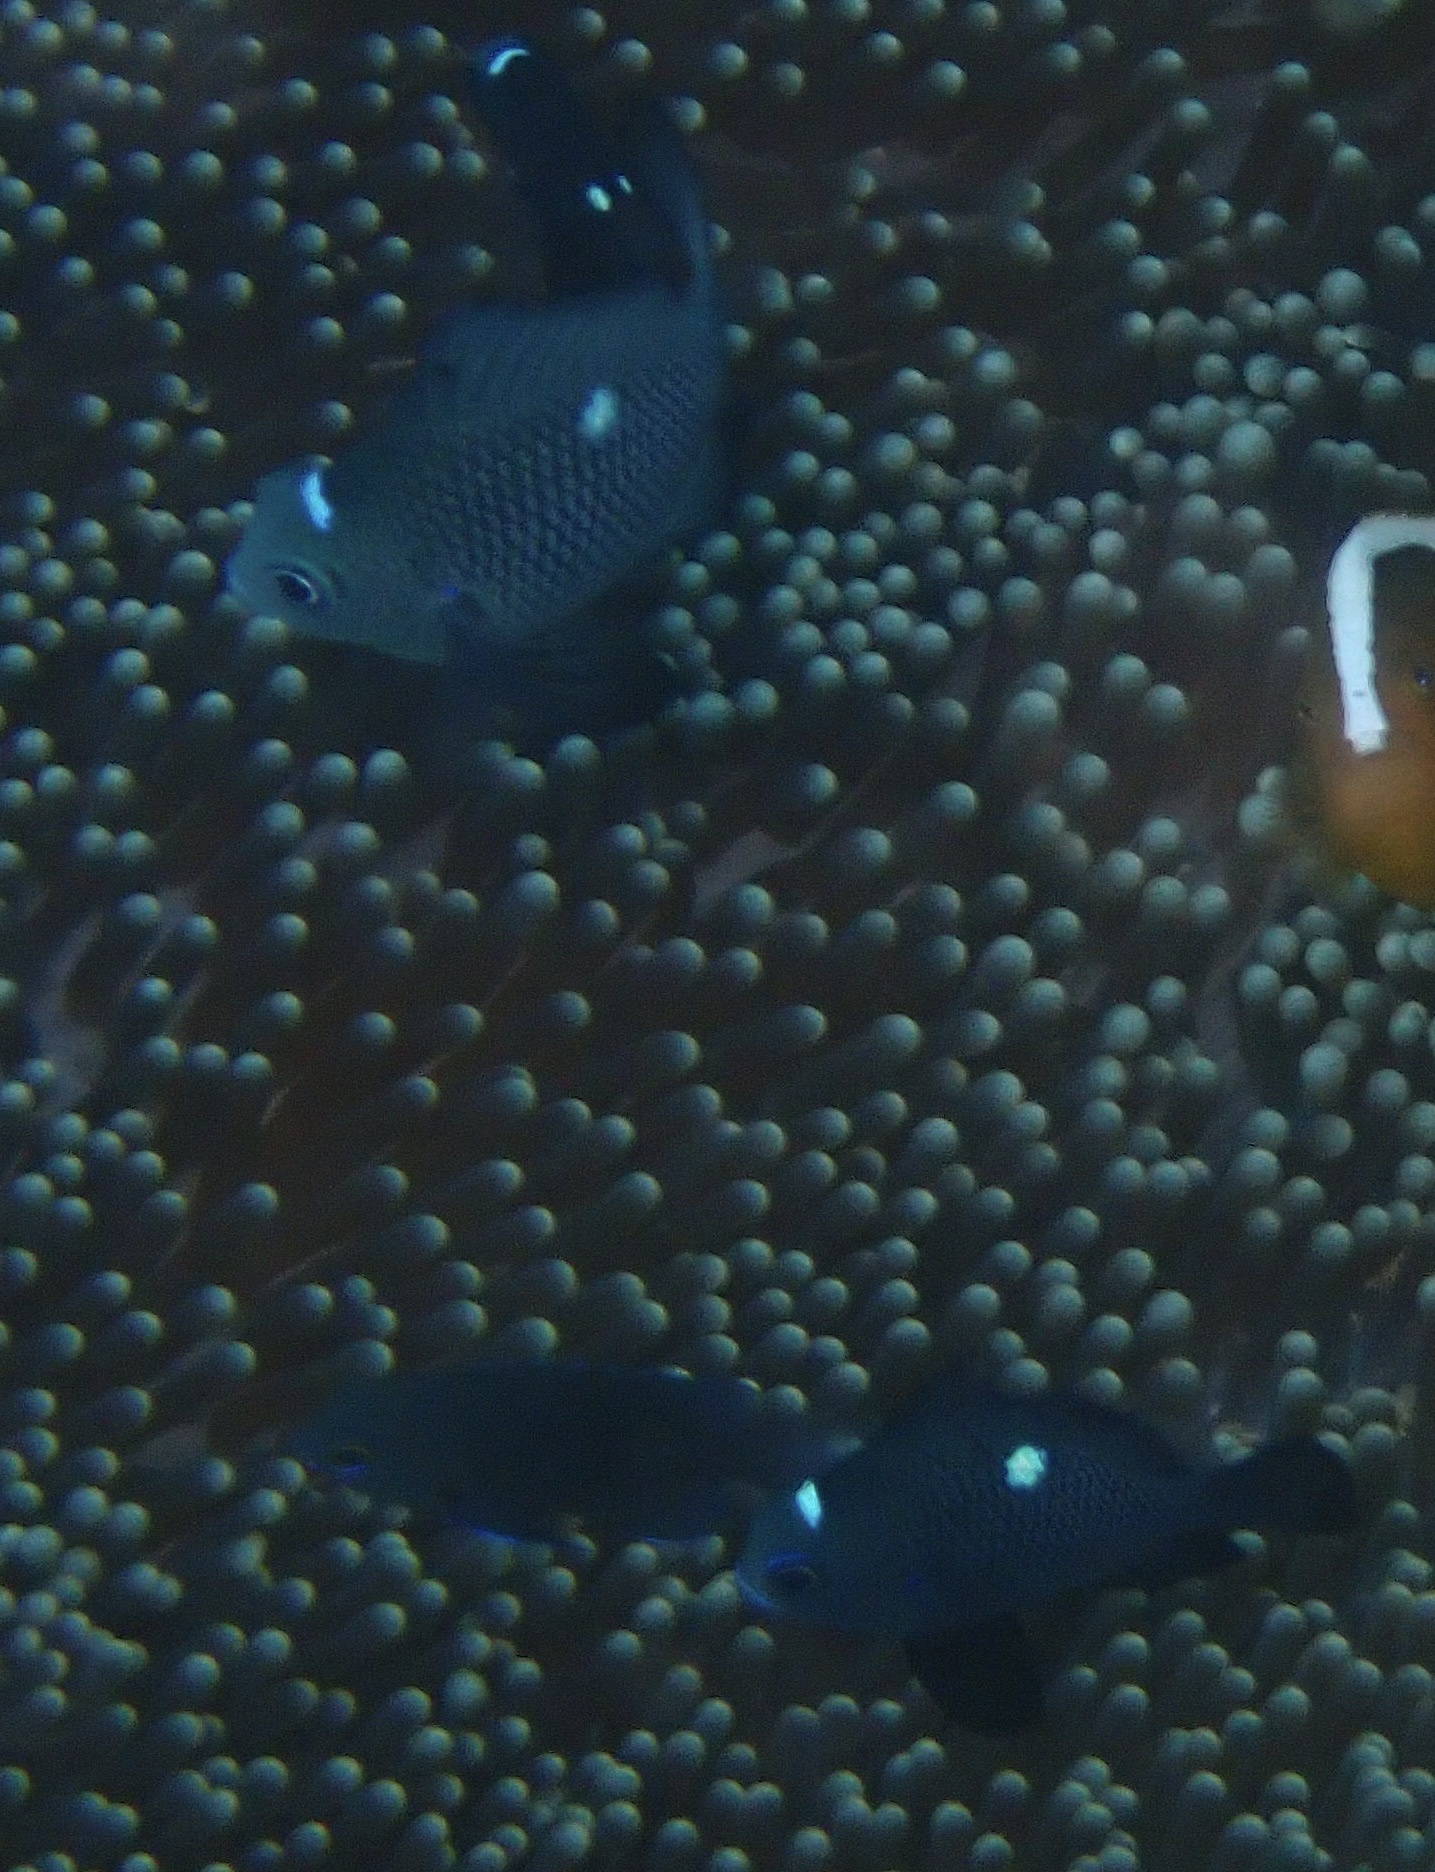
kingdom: Animalia
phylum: Chordata
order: Perciformes
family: Pomacentridae
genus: Dascyllus
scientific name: Dascyllus trimaculatus
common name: Threespot dascyllus
